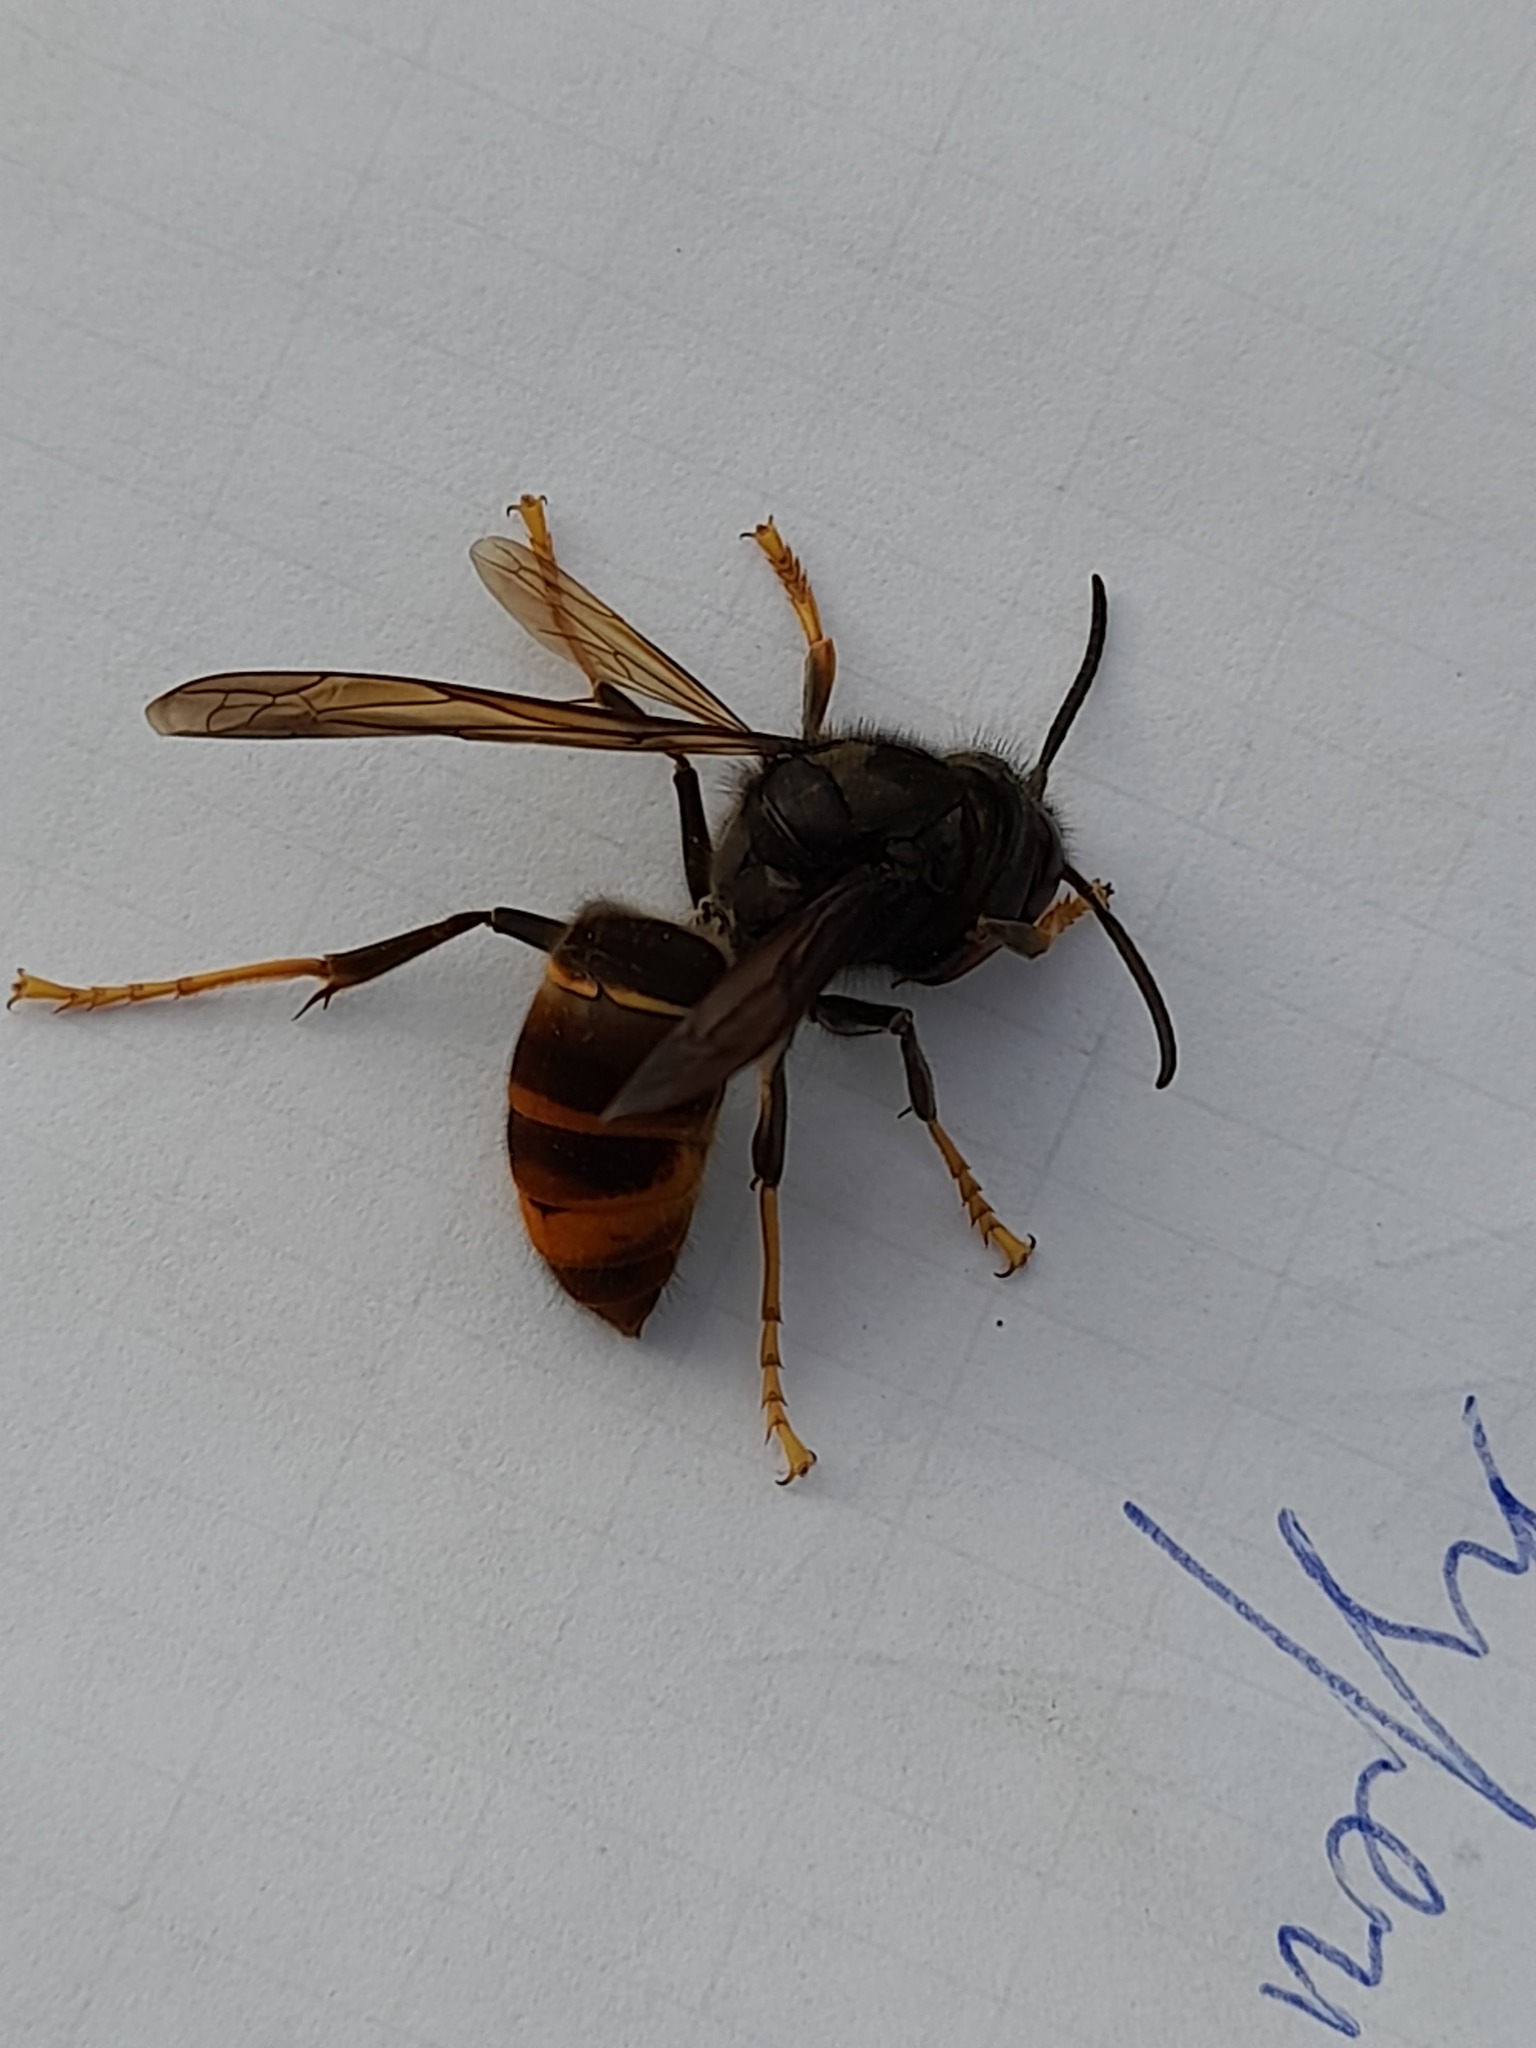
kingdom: Animalia
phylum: Arthropoda
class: Insecta
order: Hymenoptera
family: Vespidae
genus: Vespa
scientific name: Vespa velutina
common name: Asian hornet
